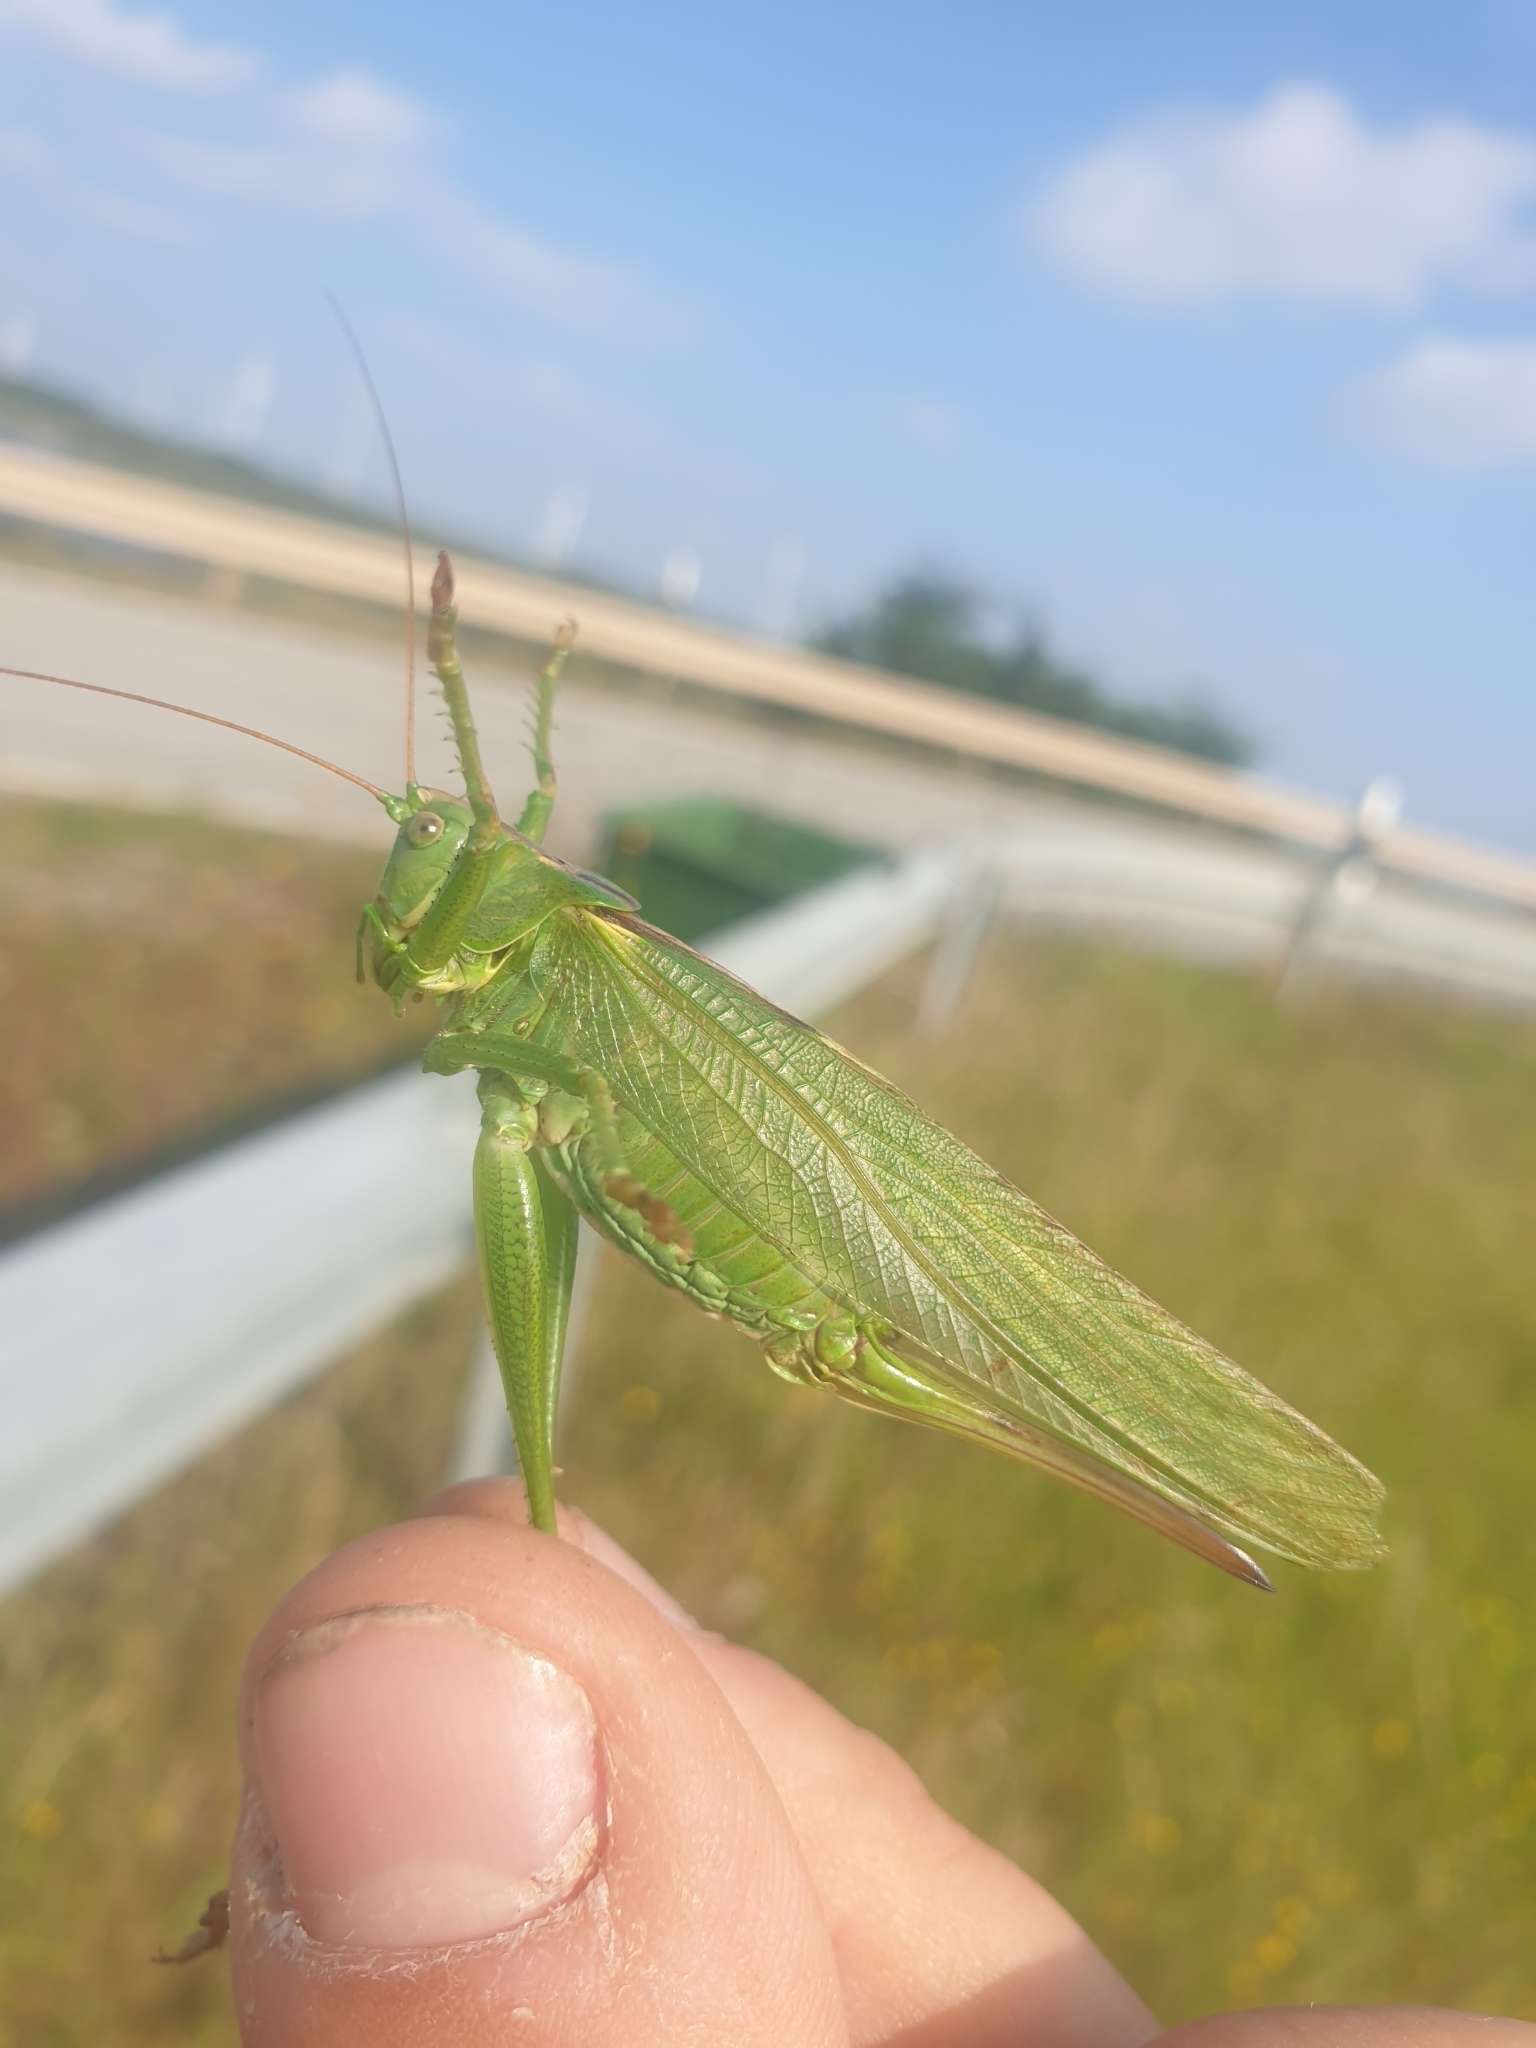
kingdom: Animalia
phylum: Arthropoda
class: Insecta
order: Orthoptera
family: Tettigoniidae
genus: Tettigonia
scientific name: Tettigonia viridissima
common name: Great green bush-cricket
